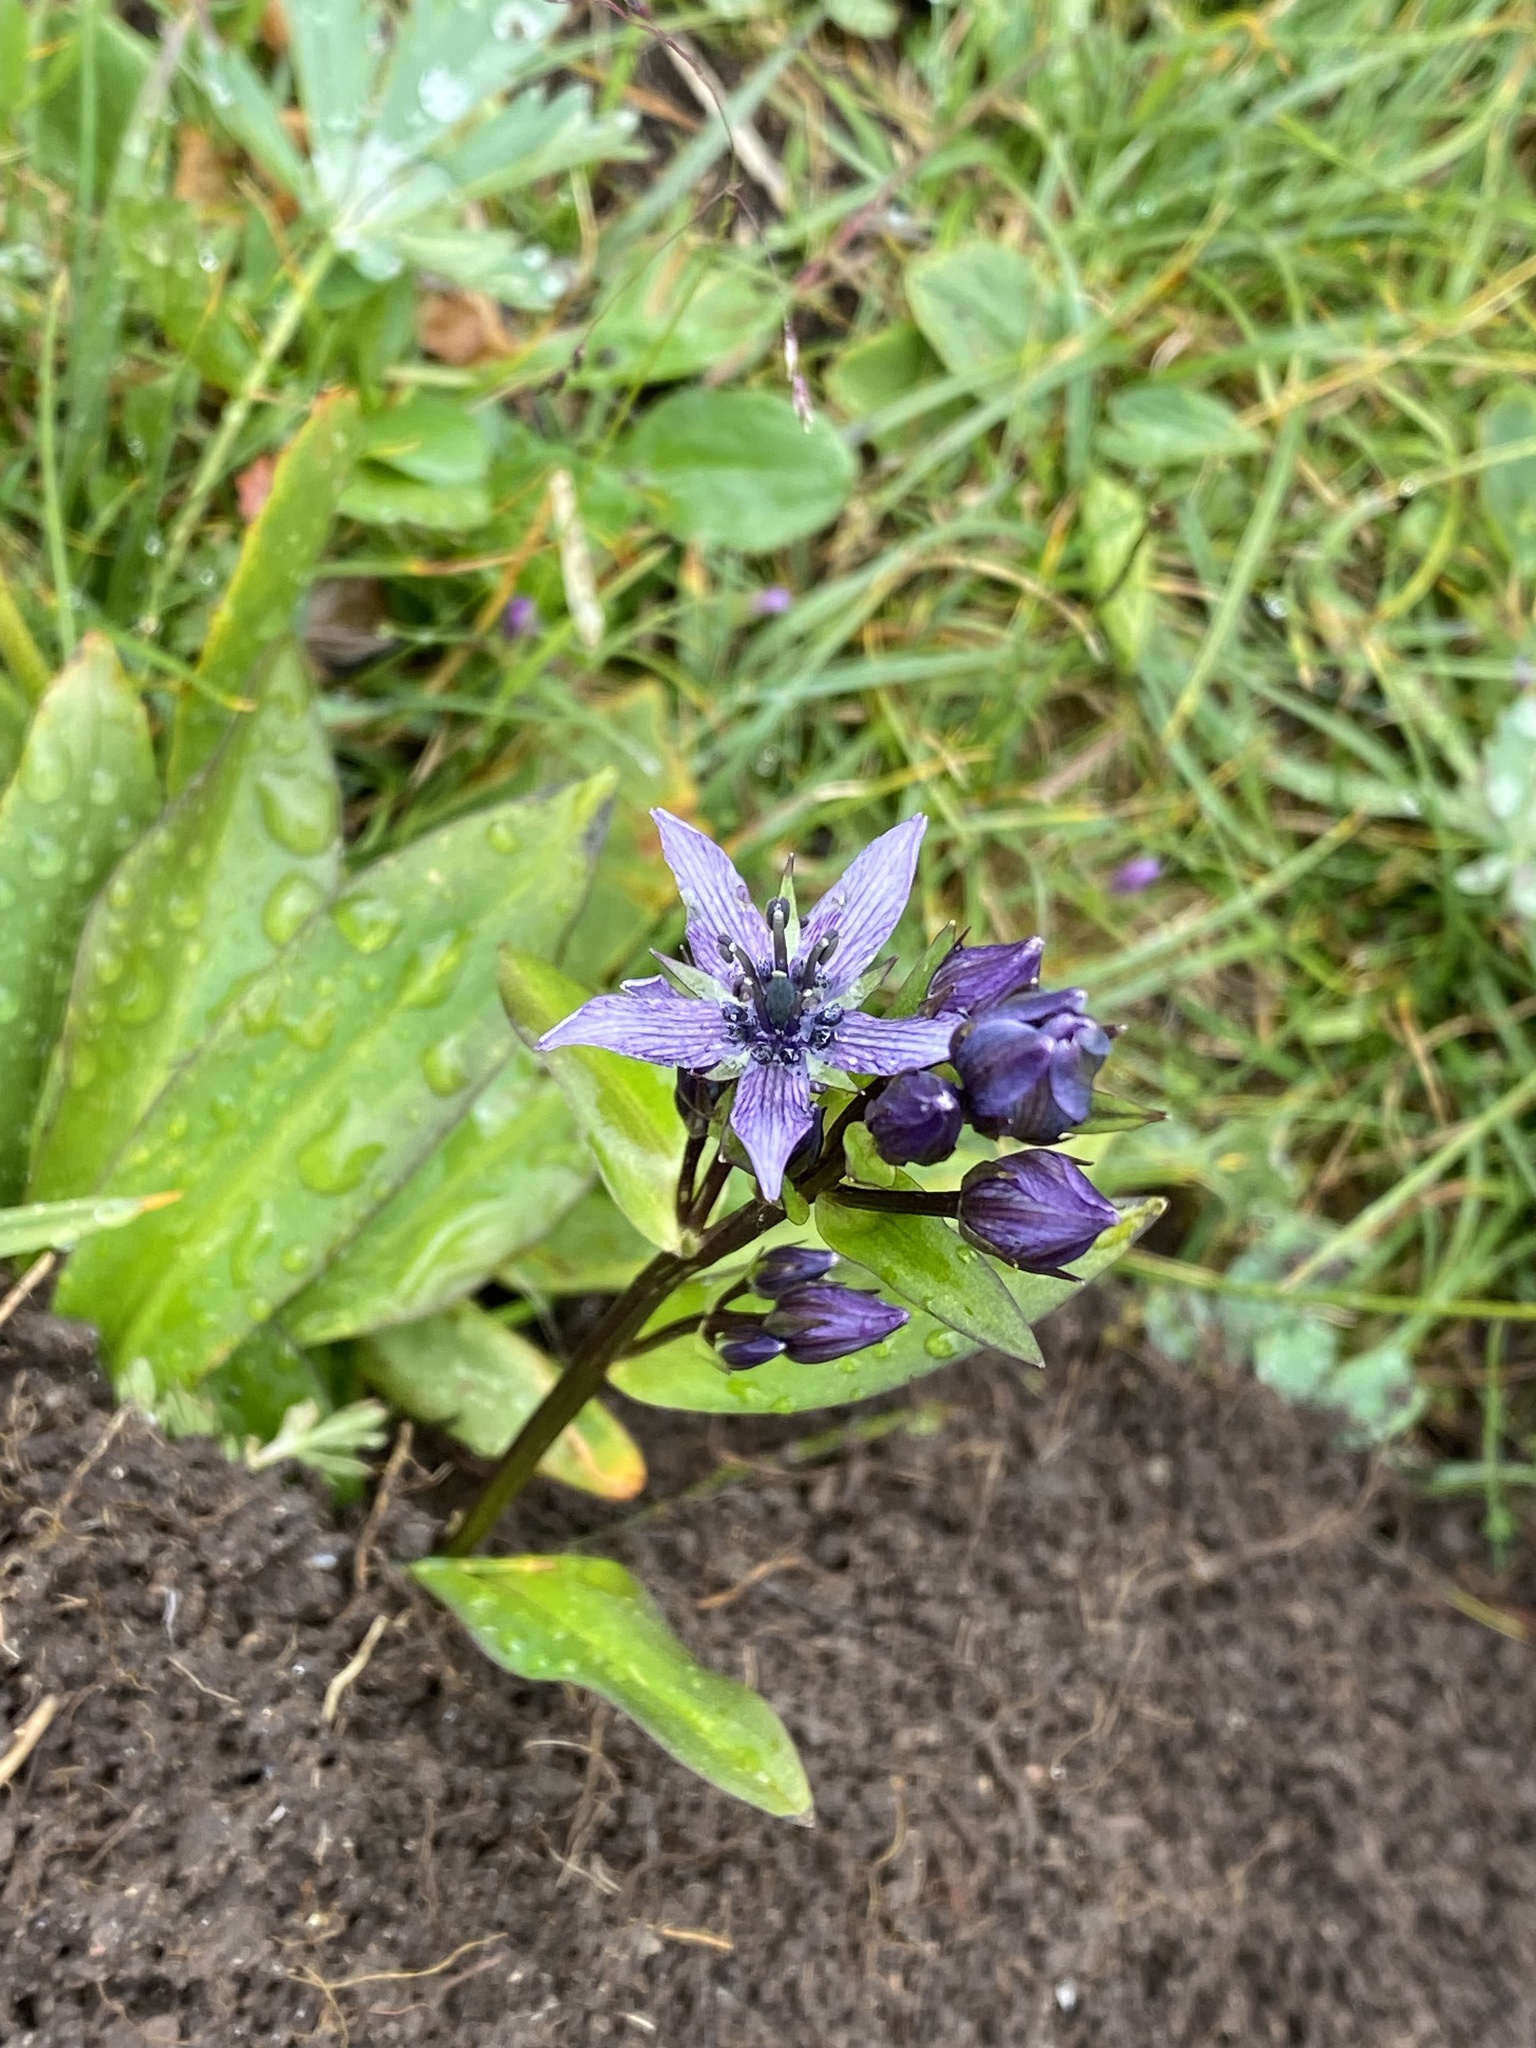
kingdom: Plantae
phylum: Tracheophyta
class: Magnoliopsida
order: Gentianales
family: Gentianaceae
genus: Swertia
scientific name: Swertia perennis
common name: Alpine bog swertia
